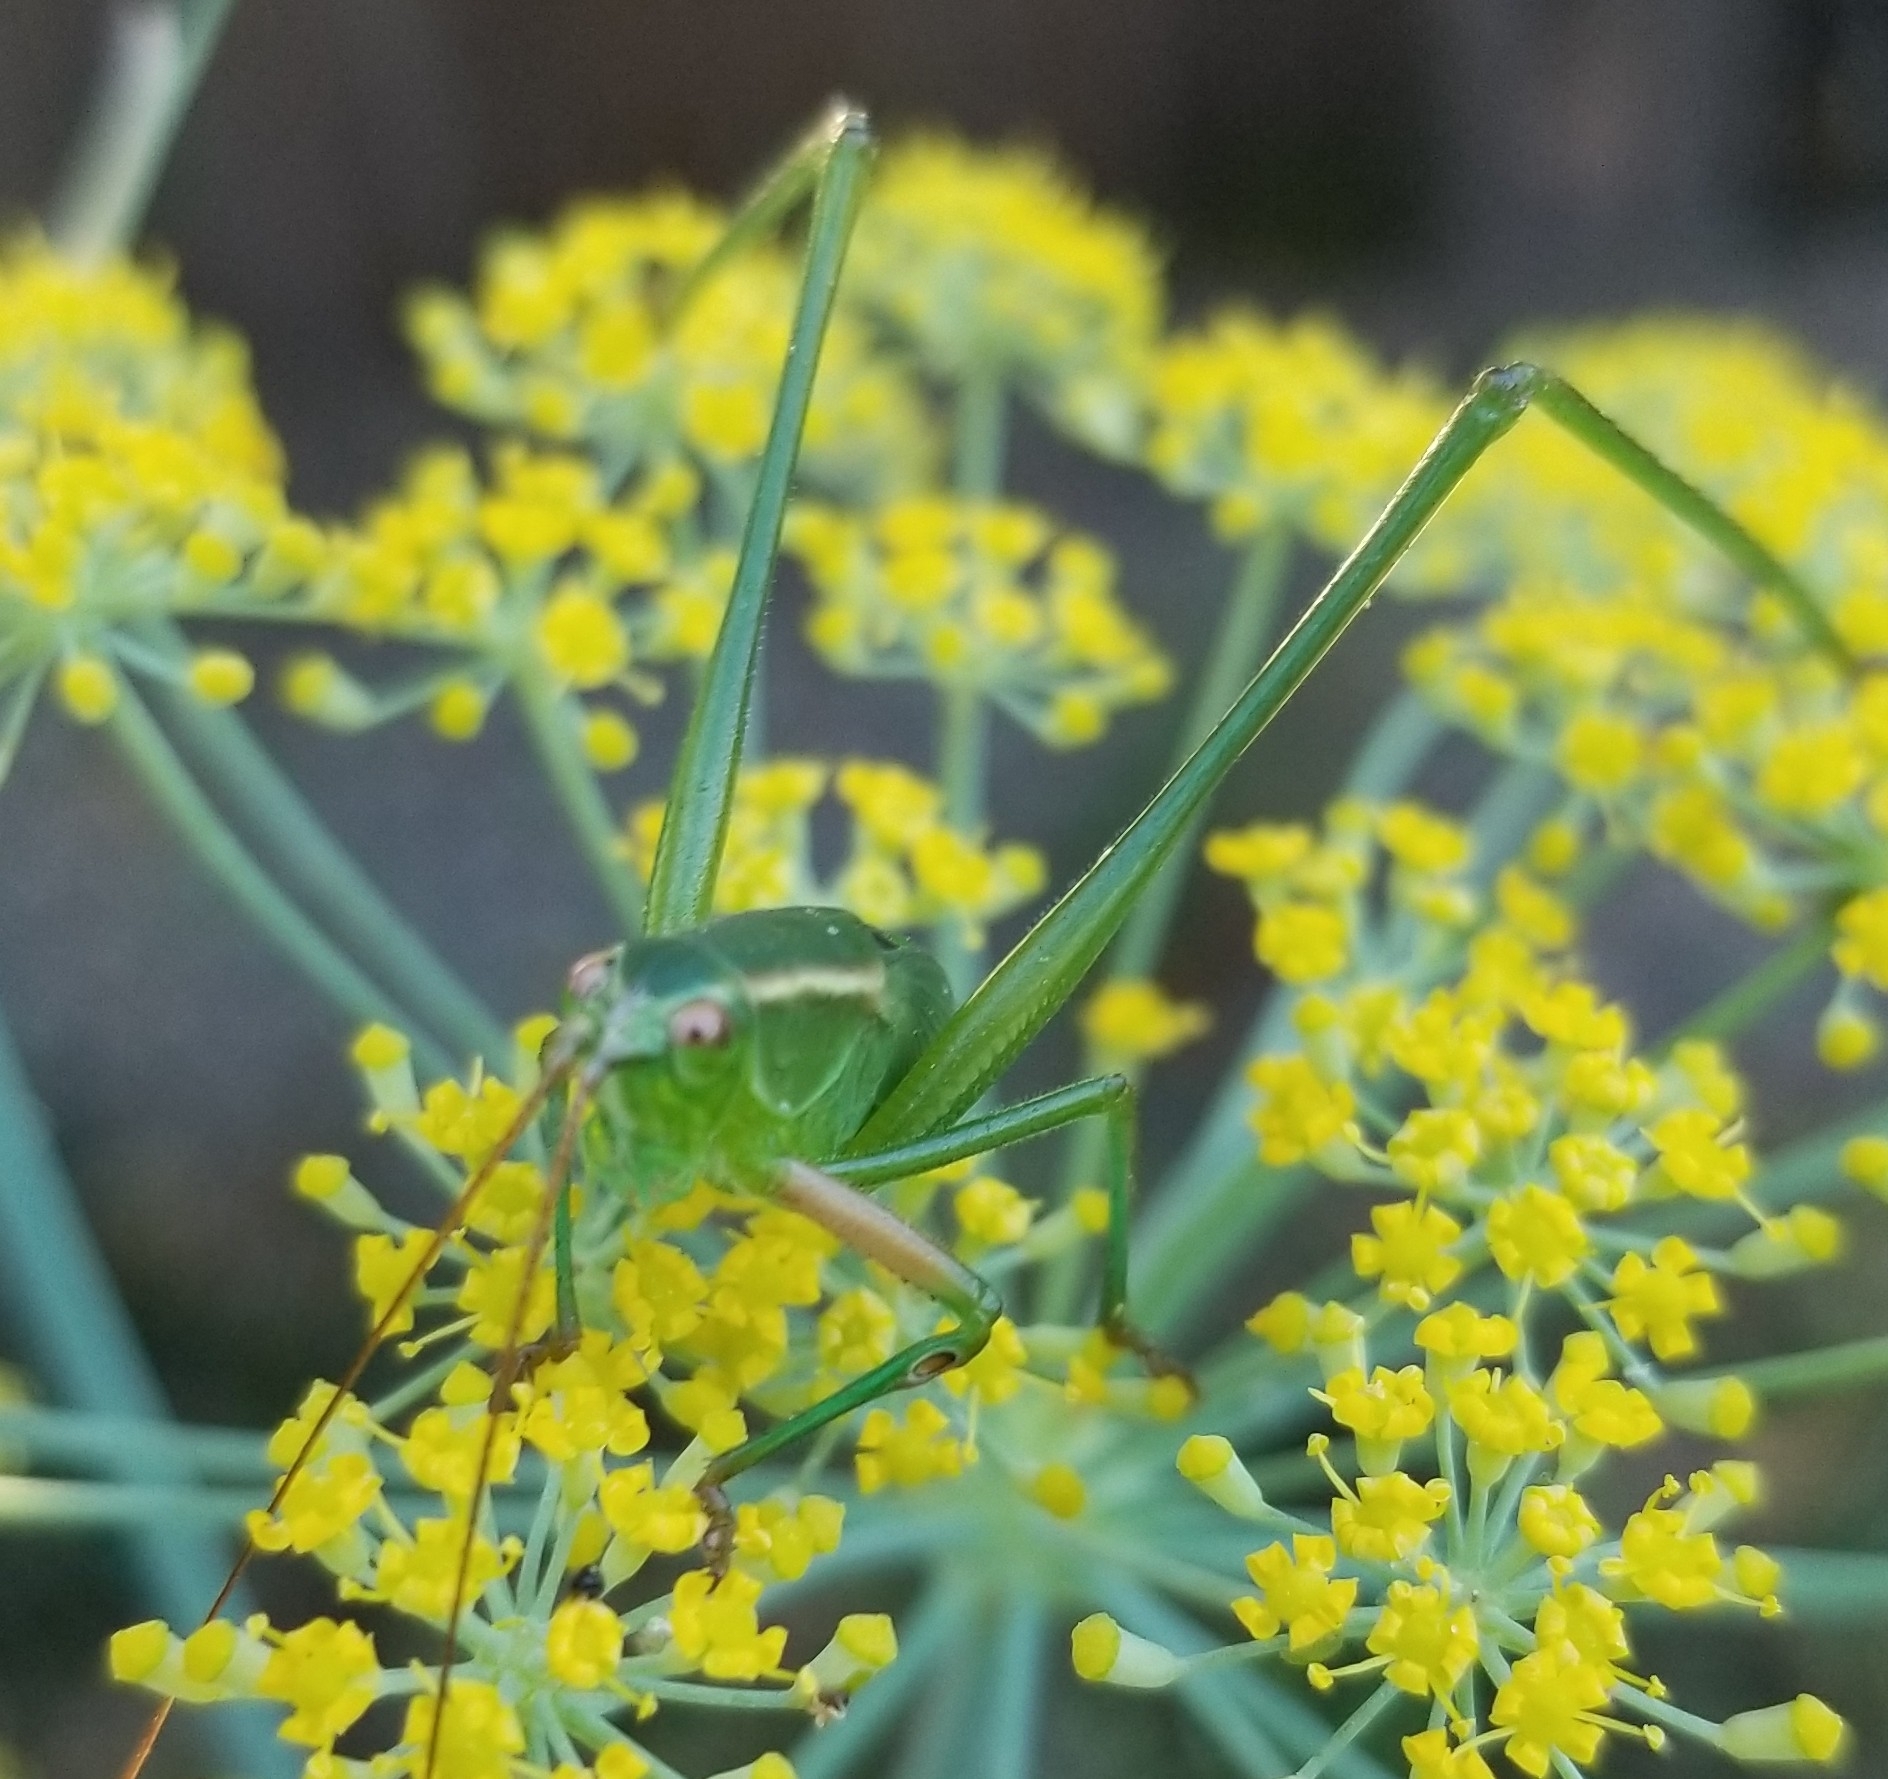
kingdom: Animalia
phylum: Arthropoda
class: Insecta
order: Orthoptera
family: Tettigoniidae
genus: Scudderia
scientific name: Scudderia
